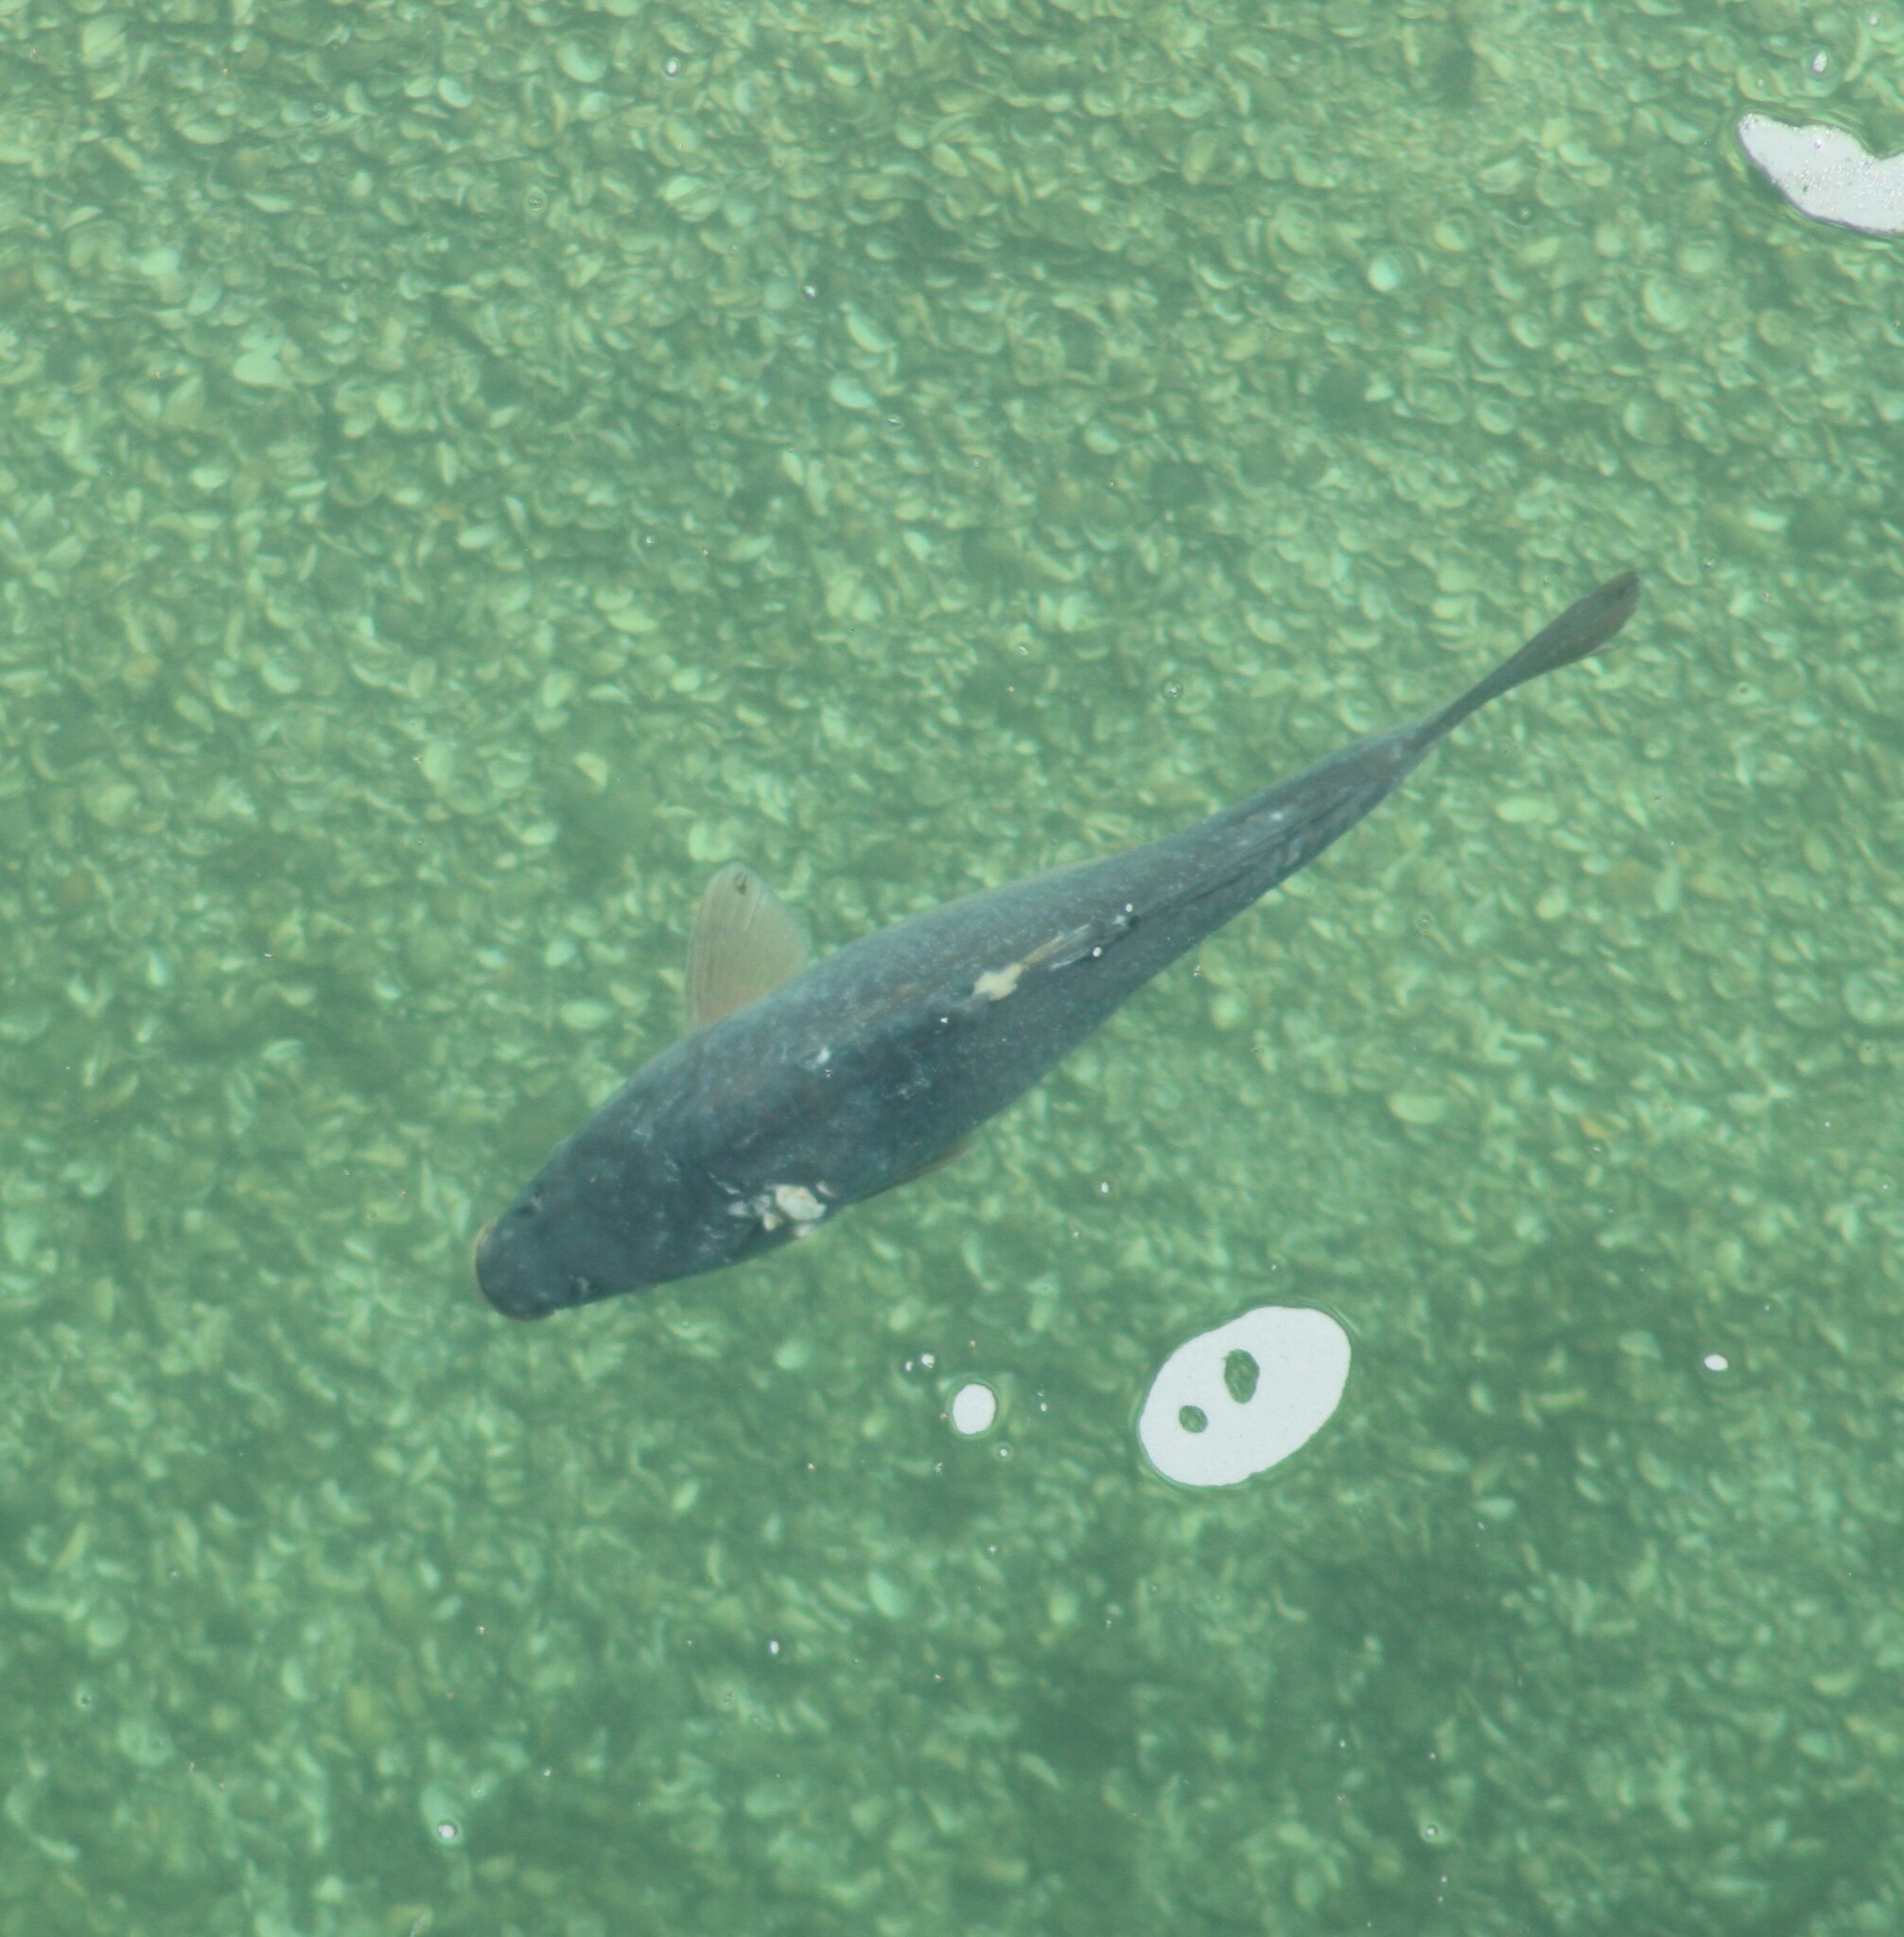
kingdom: Animalia
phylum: Chordata
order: Cypriniformes
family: Cyprinidae
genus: Cyprinus
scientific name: Cyprinus carpio
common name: Common carp
